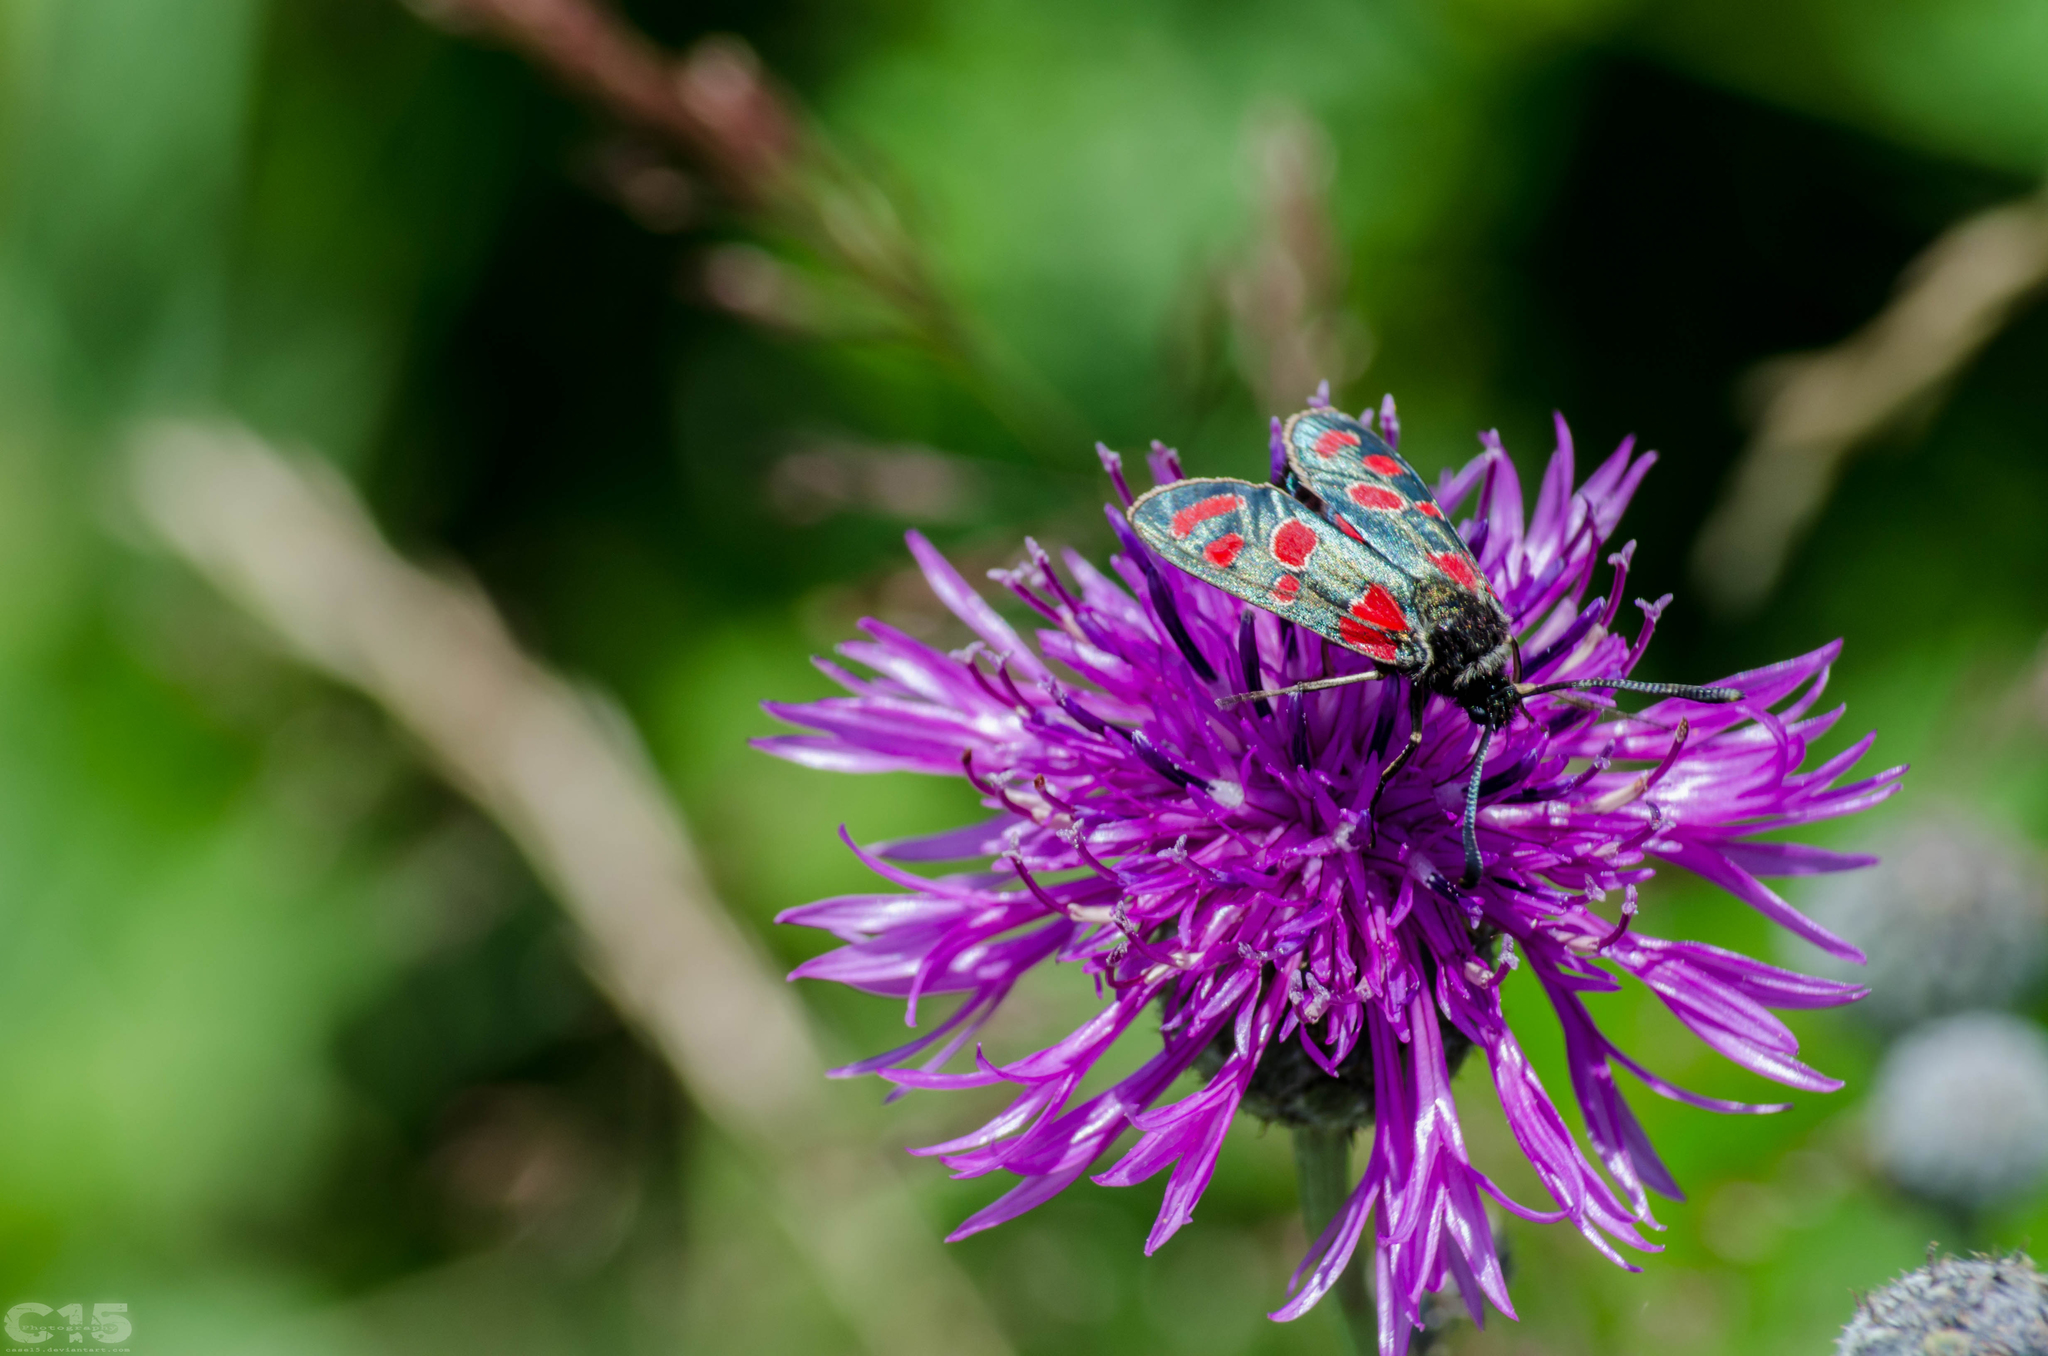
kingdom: Animalia
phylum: Arthropoda
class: Insecta
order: Lepidoptera
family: Zygaenidae
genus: Zygaena
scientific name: Zygaena carniolica
